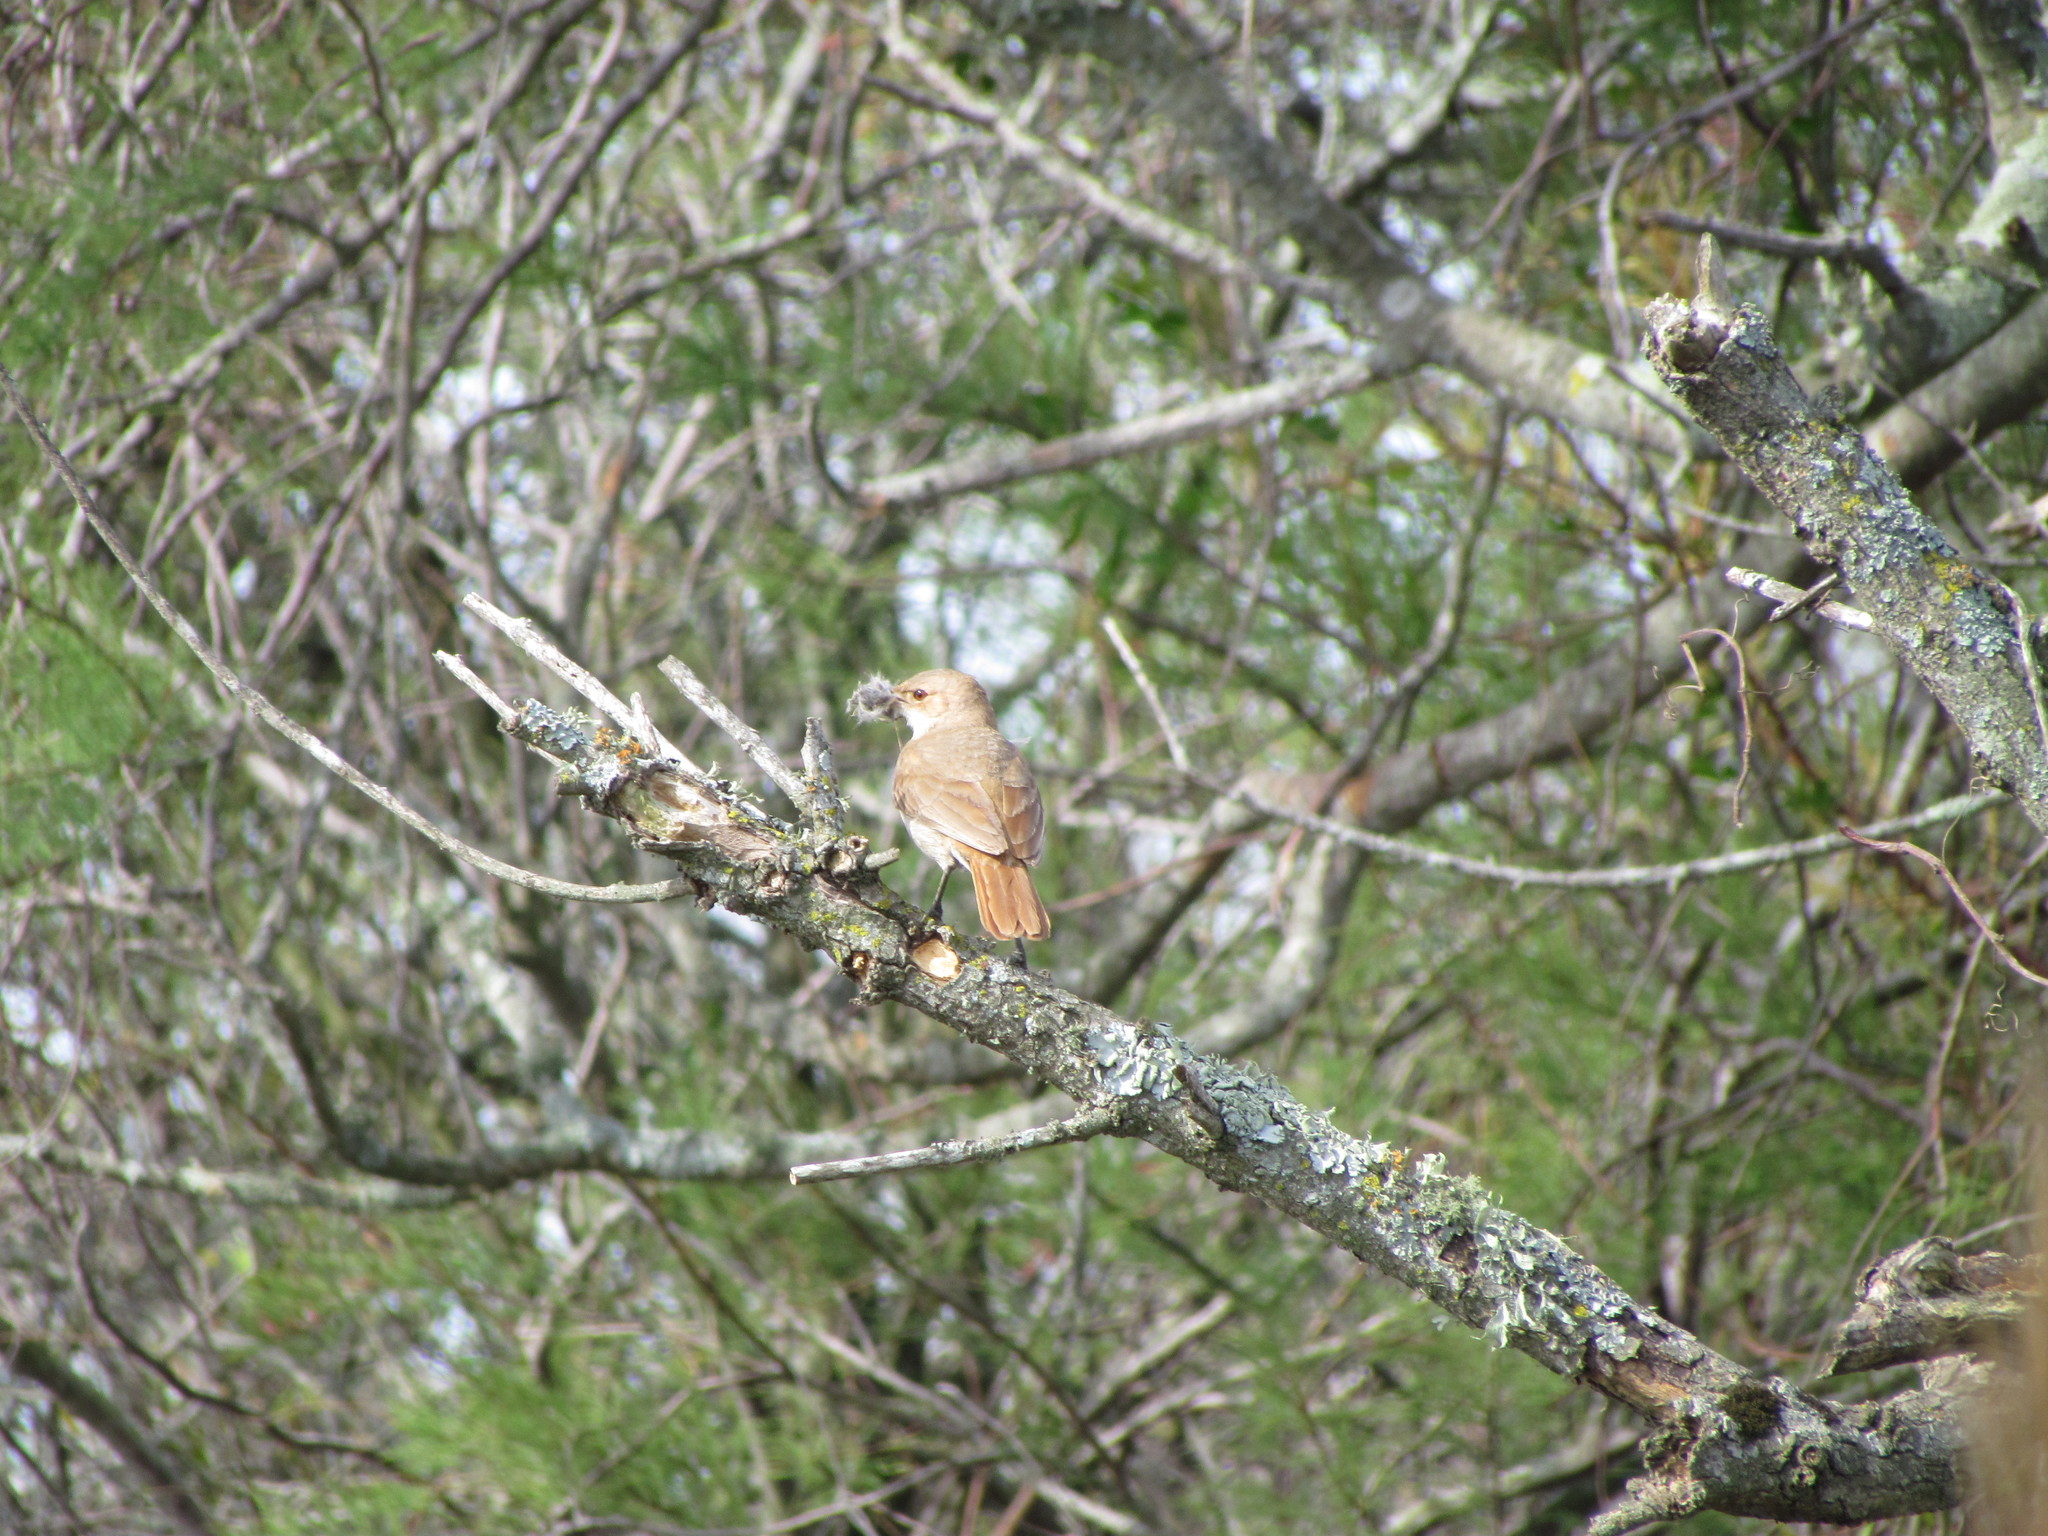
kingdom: Animalia
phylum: Chordata
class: Aves
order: Passeriformes
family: Furnariidae
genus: Furnarius
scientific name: Furnarius rufus
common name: Rufous hornero
